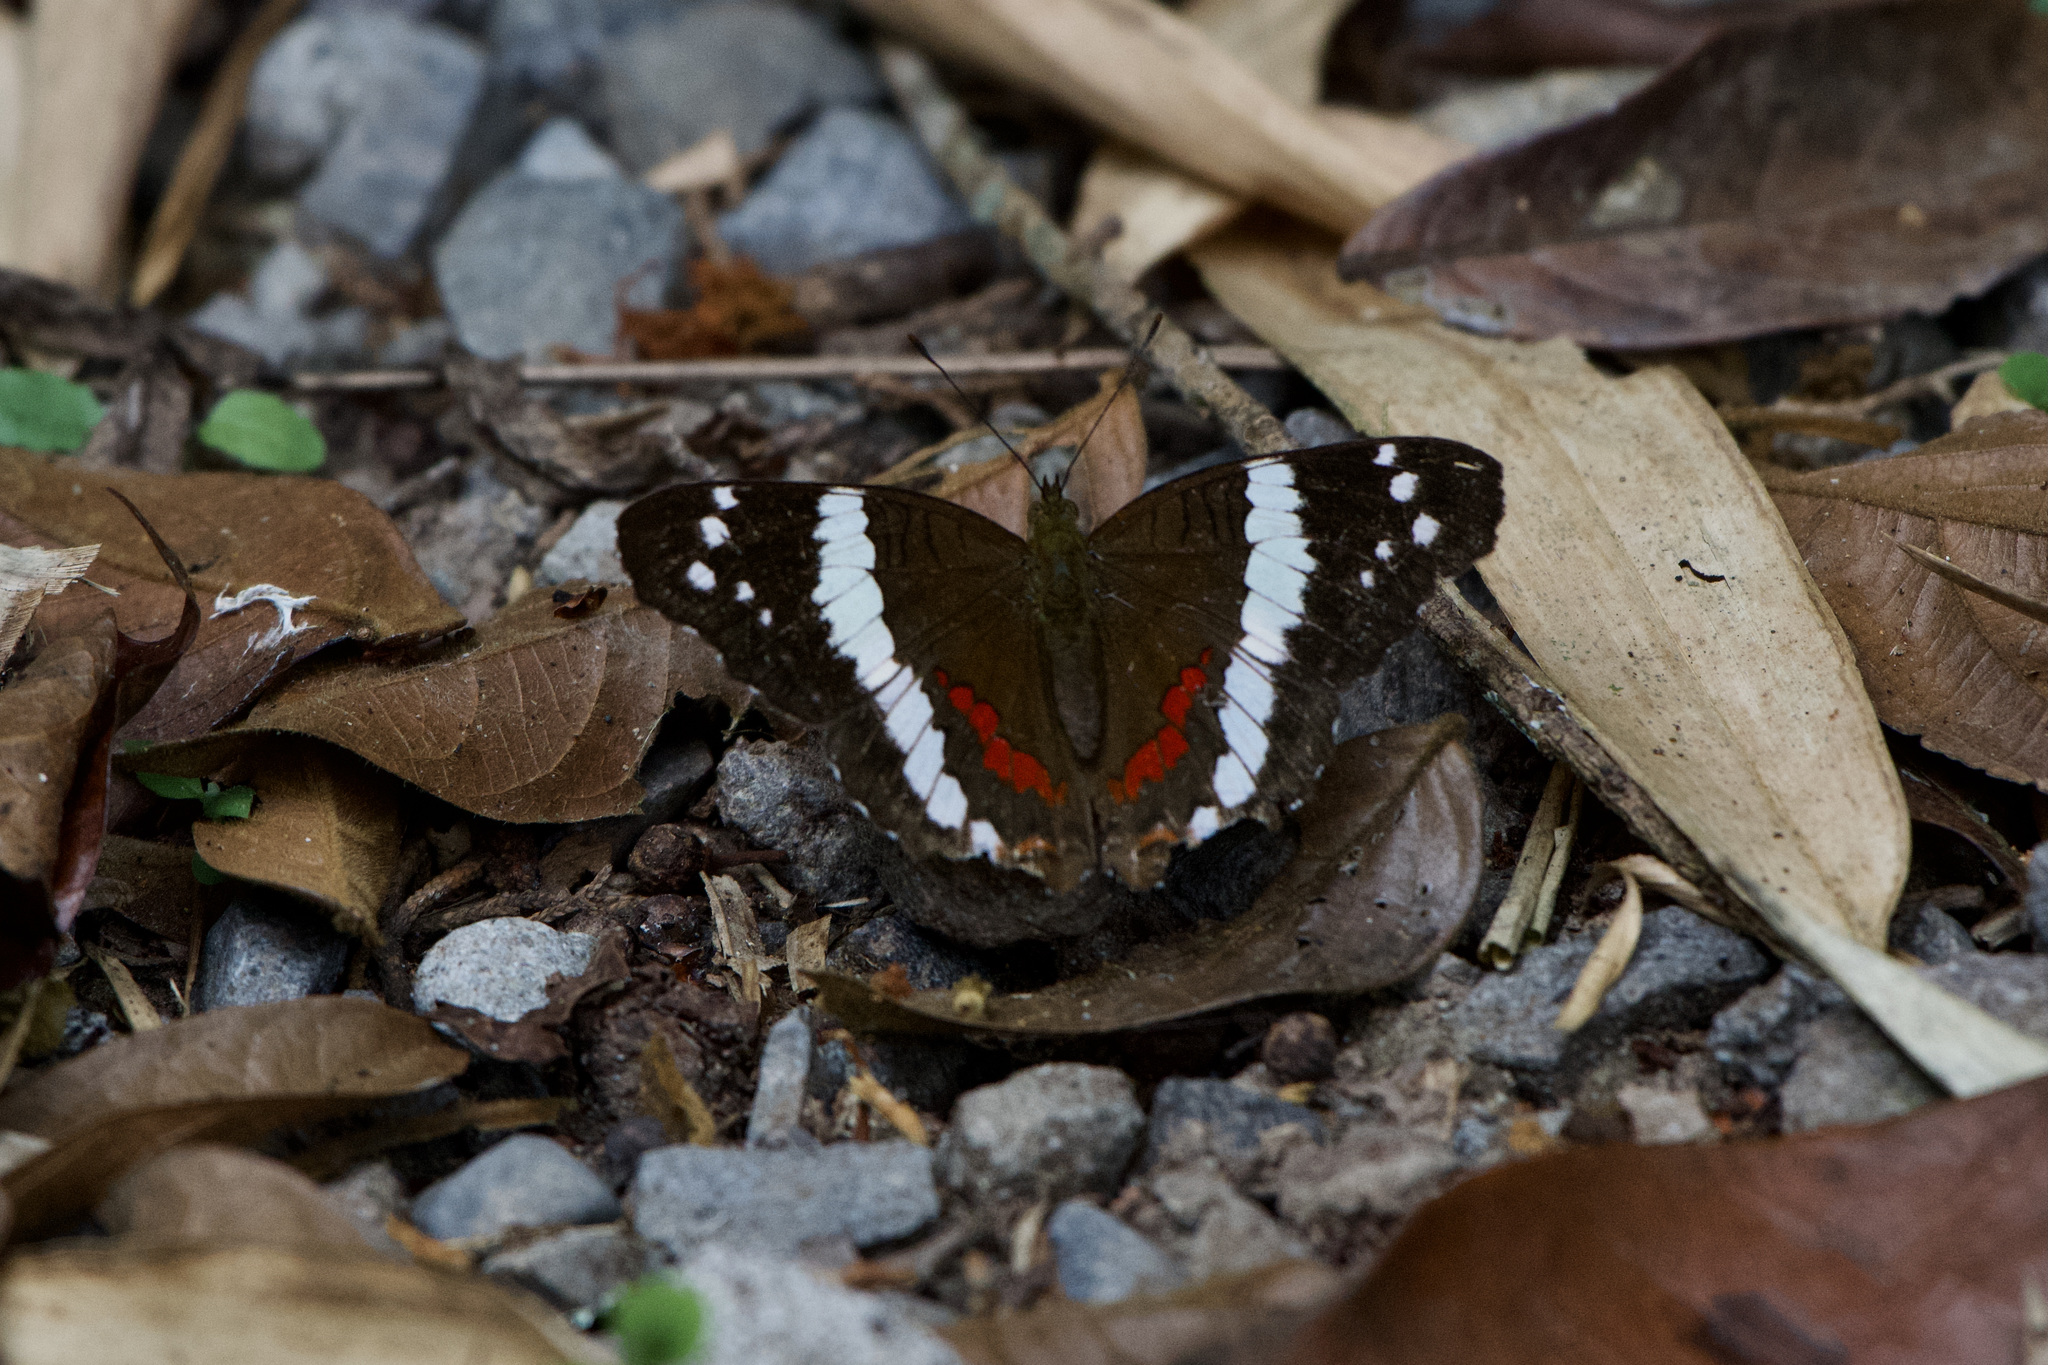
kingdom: Animalia
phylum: Arthropoda
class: Insecta
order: Lepidoptera
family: Nymphalidae
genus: Anartia
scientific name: Anartia fatima
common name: Banded peacock
